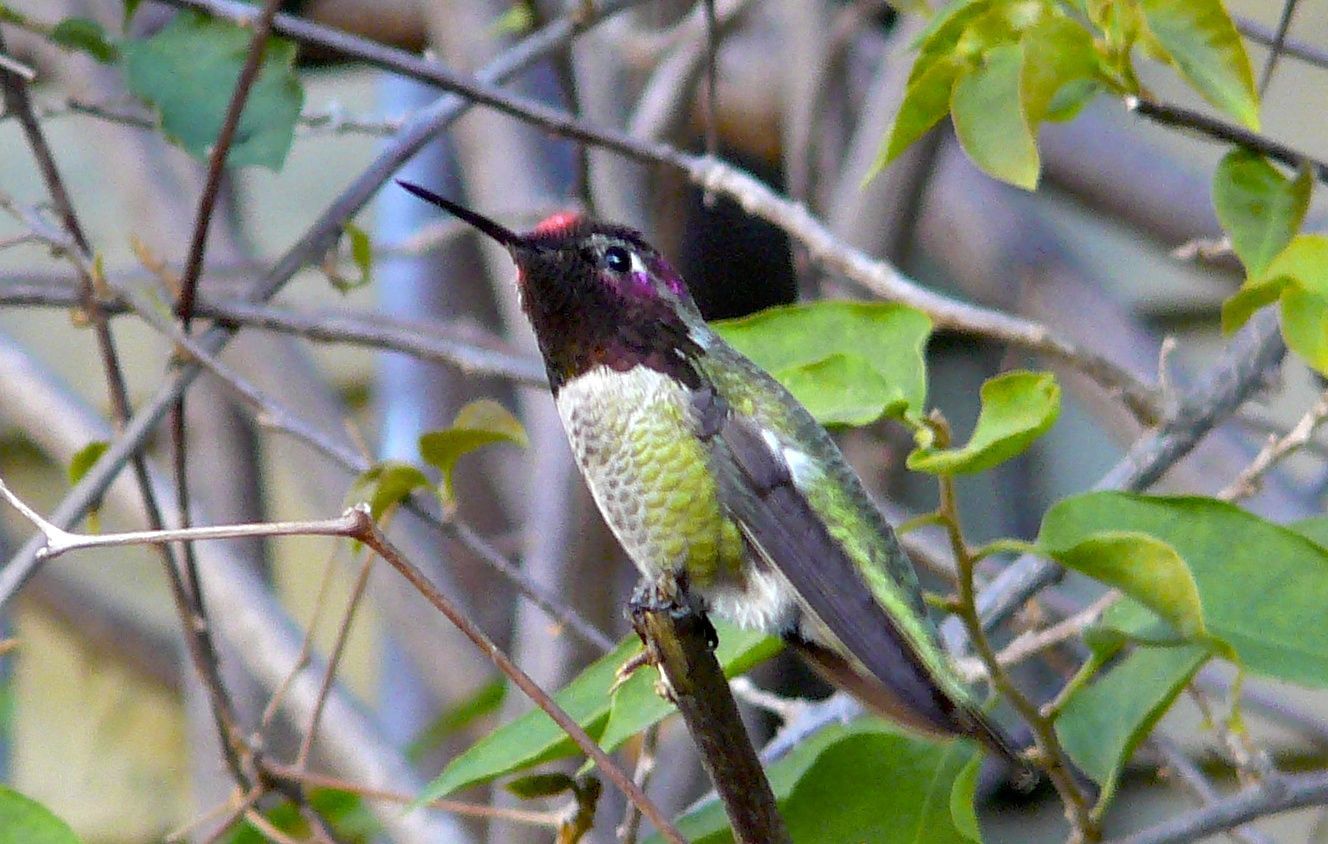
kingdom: Animalia
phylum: Chordata
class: Aves
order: Apodiformes
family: Trochilidae
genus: Calypte
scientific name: Calypte anna
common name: Anna's hummingbird
